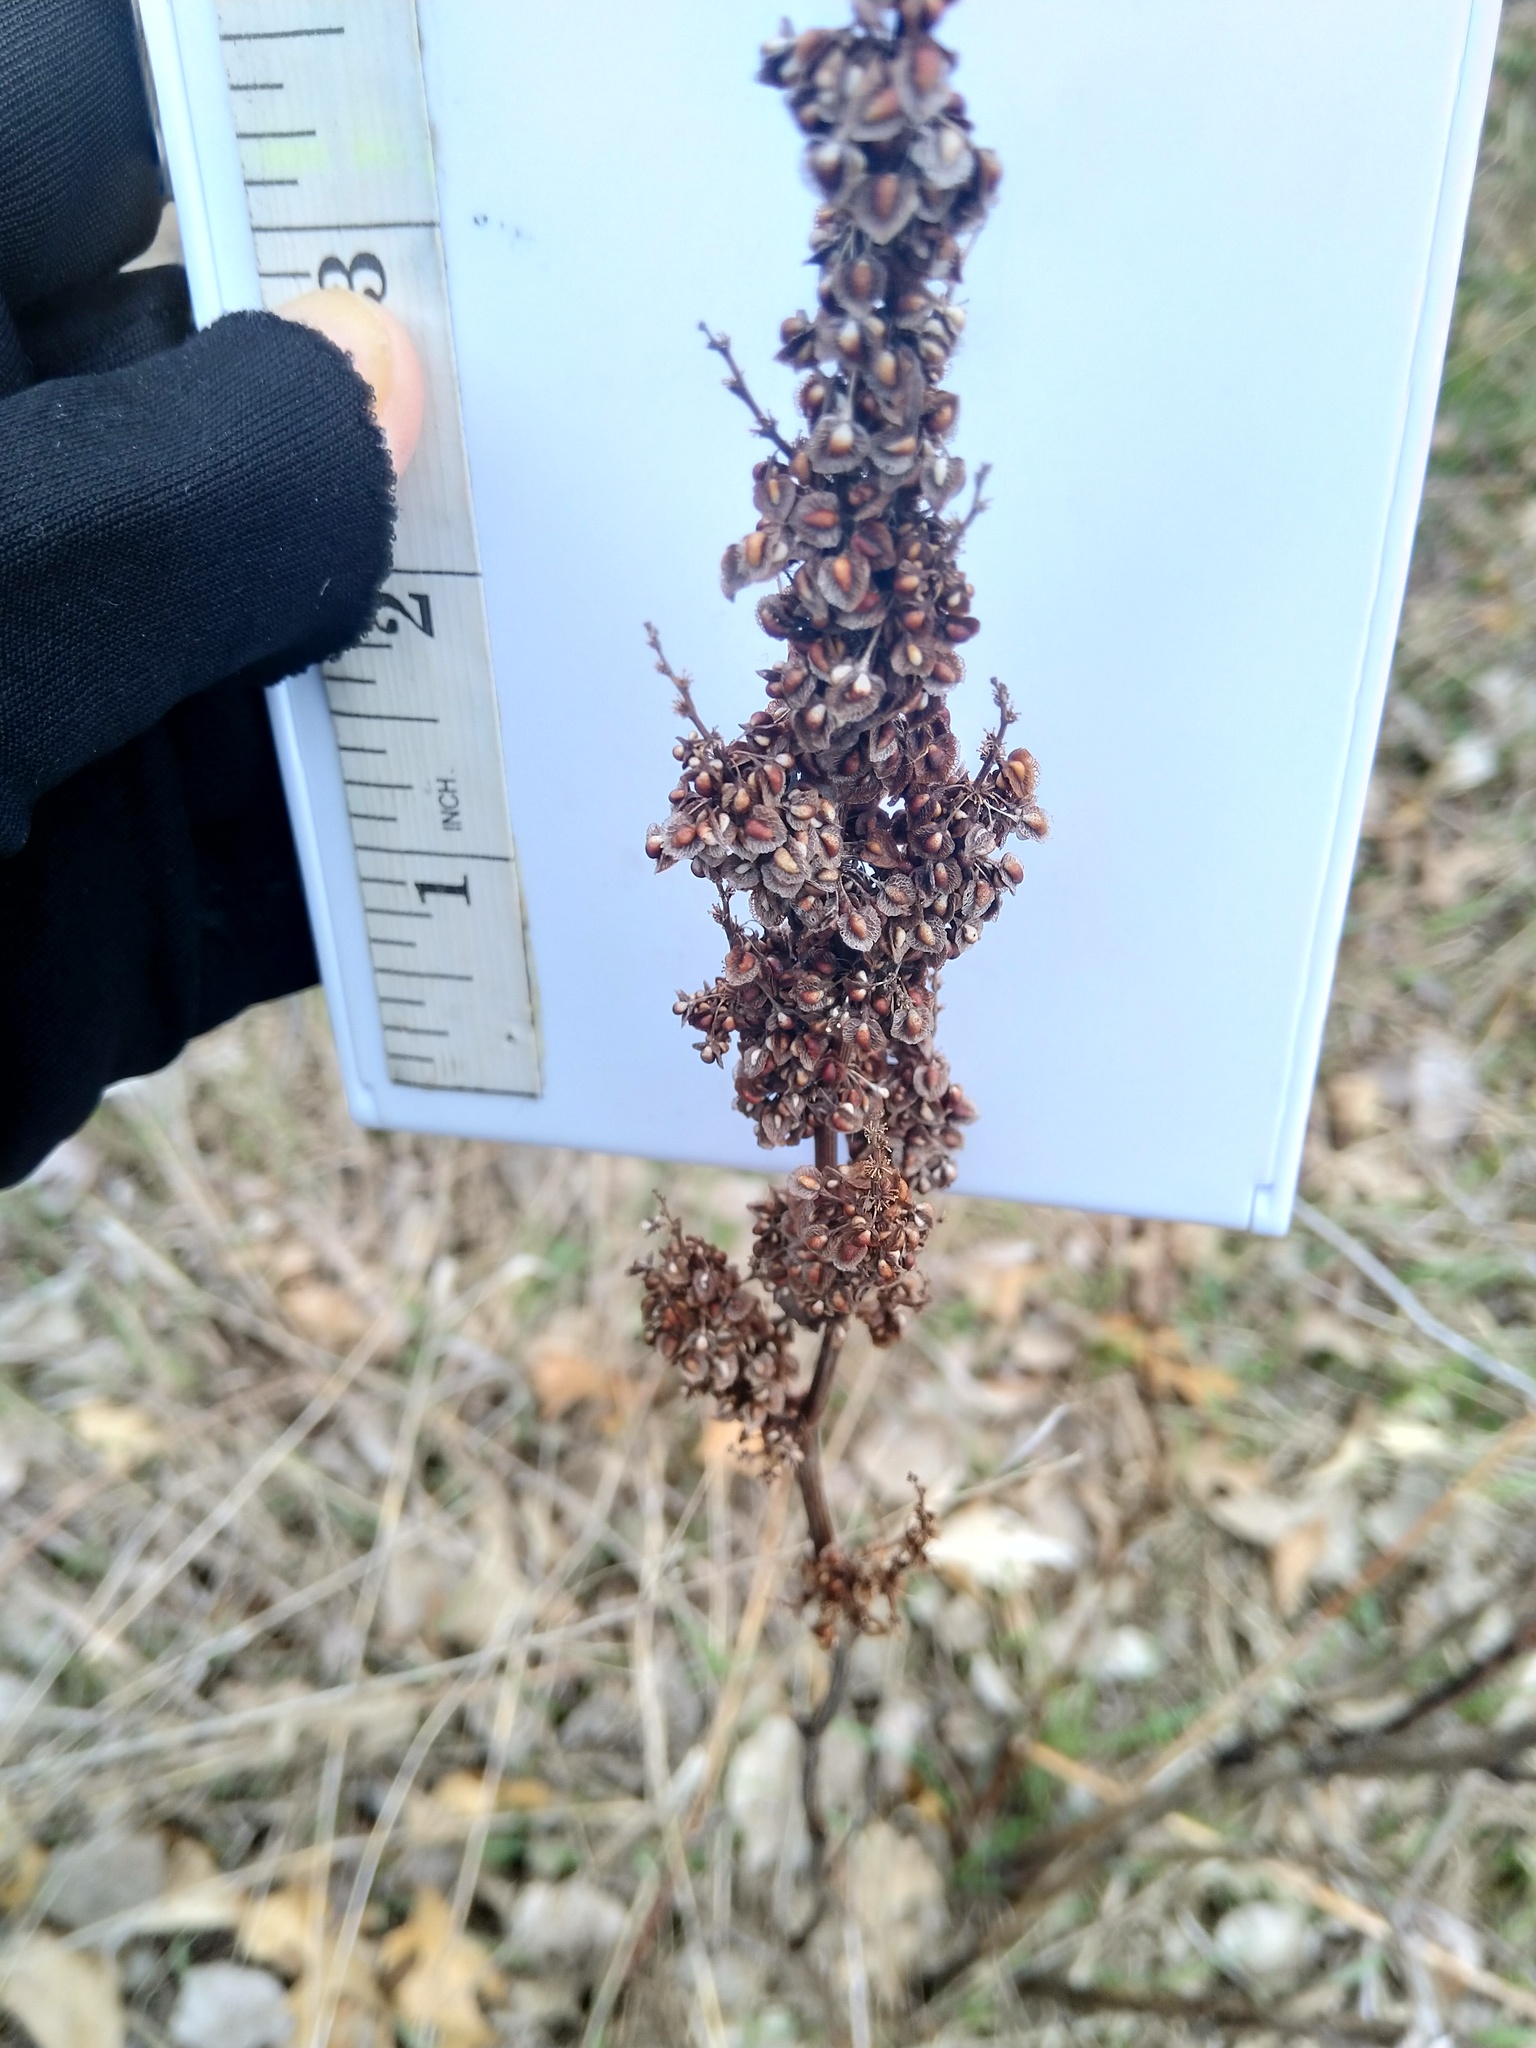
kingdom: Plantae
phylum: Tracheophyta
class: Magnoliopsida
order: Caryophyllales
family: Polygonaceae
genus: Rumex
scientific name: Rumex crispus
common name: Curled dock
